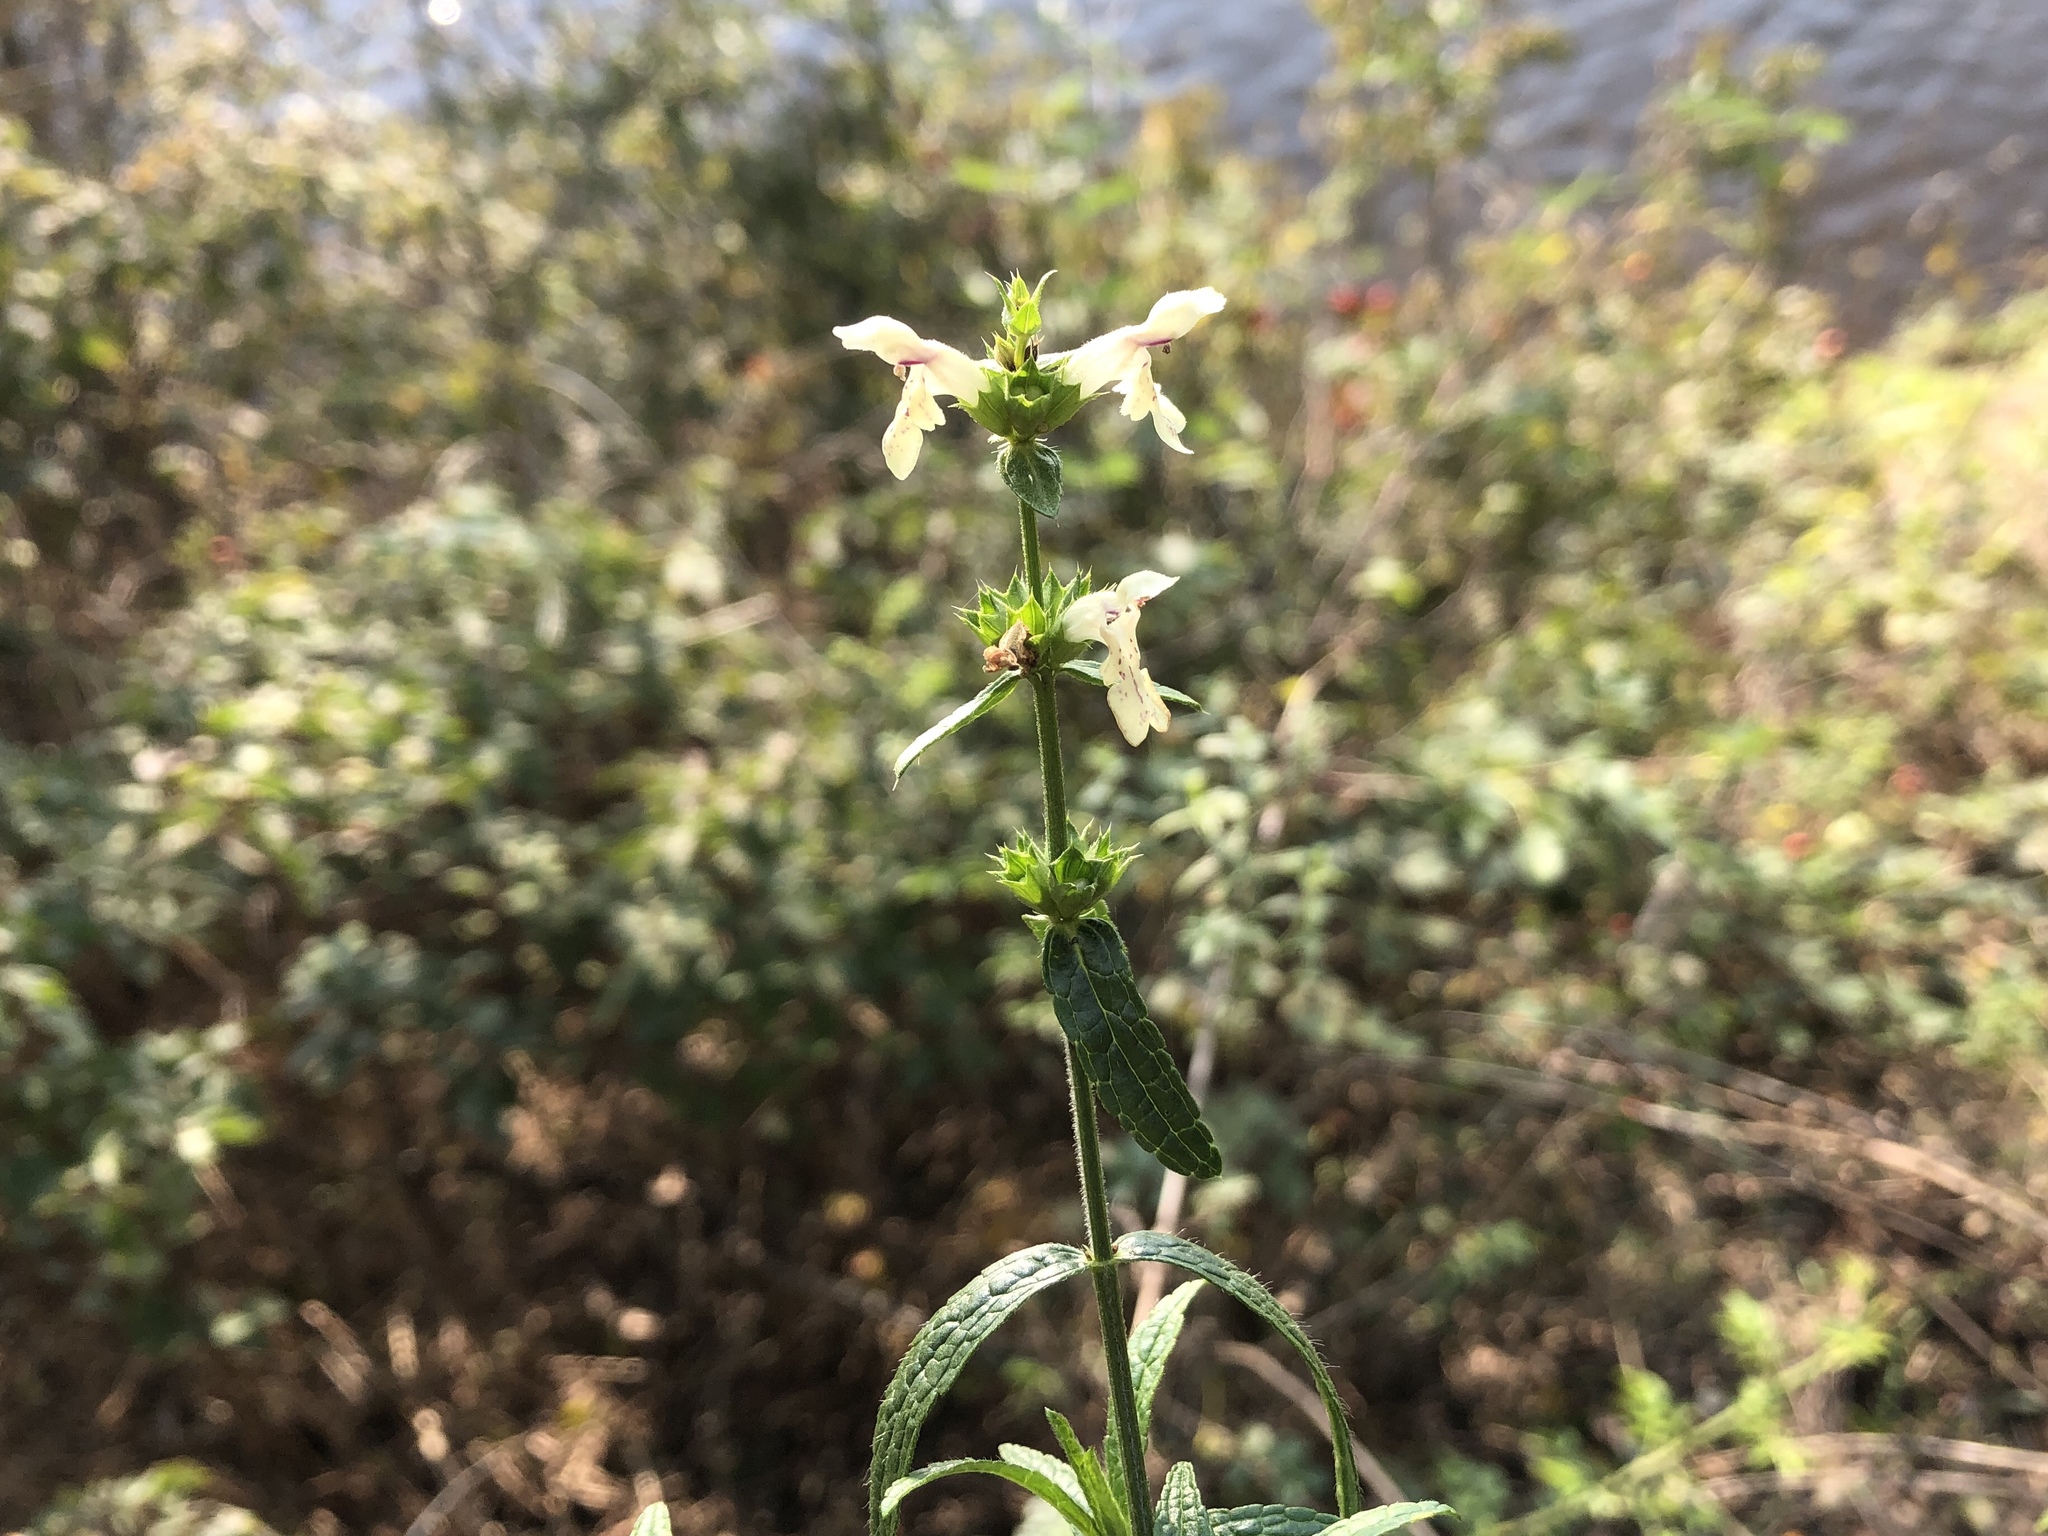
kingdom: Plantae
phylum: Tracheophyta
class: Magnoliopsida
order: Lamiales
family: Lamiaceae
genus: Stachys
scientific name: Stachys recta
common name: Perennial yellow-woundwort
